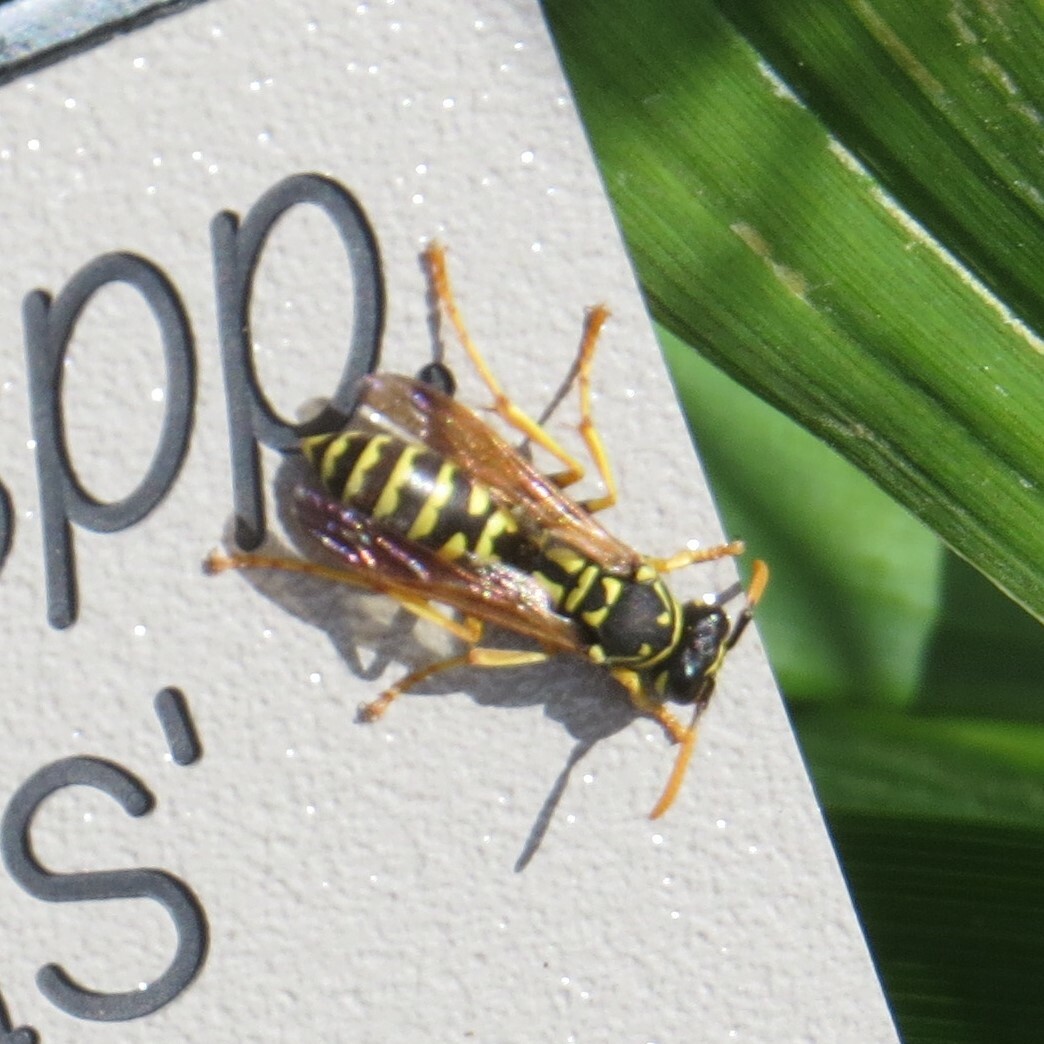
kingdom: Animalia
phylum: Arthropoda
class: Insecta
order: Hymenoptera
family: Eumenidae
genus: Polistes
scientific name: Polistes dominula
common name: Paper wasp
